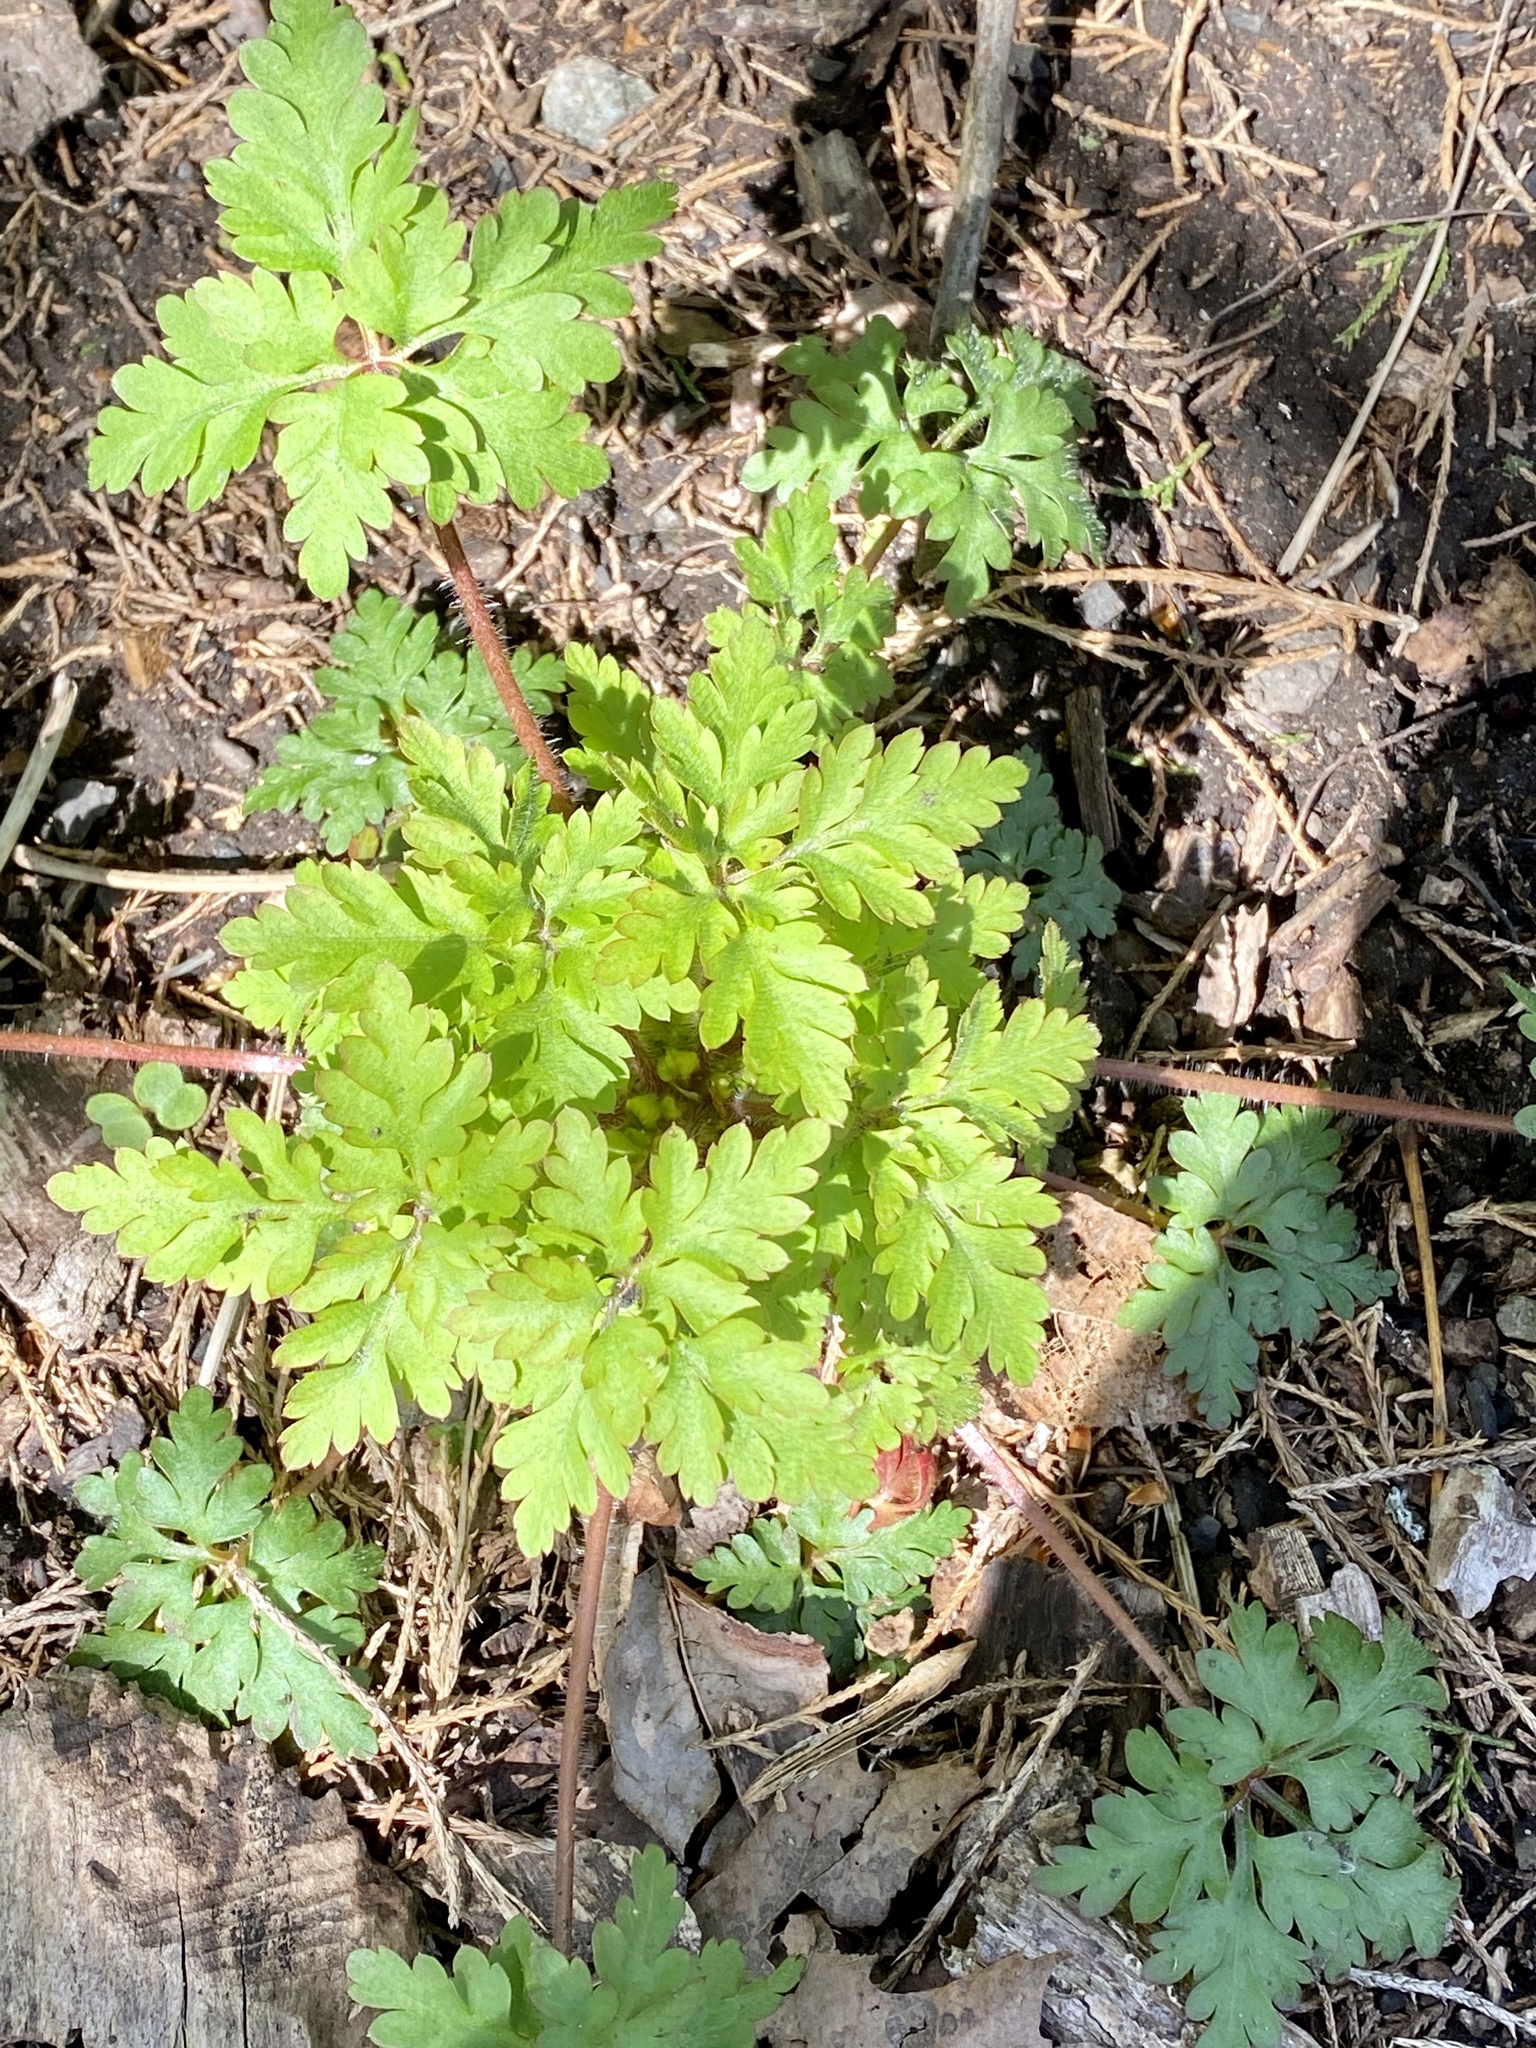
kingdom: Plantae
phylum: Tracheophyta
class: Magnoliopsida
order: Geraniales
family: Geraniaceae
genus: Geranium
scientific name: Geranium robertianum
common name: Herb-robert
